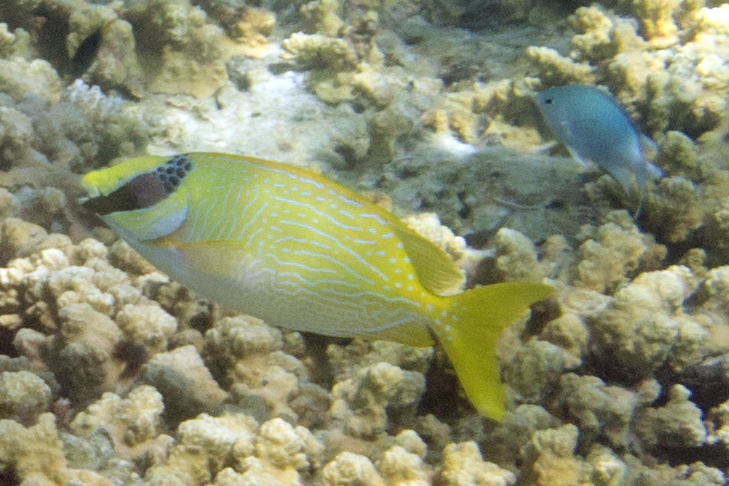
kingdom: Animalia
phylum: Chordata
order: Perciformes
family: Siganidae
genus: Siganus
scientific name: Siganus puellus
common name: Masked rabbitfish
